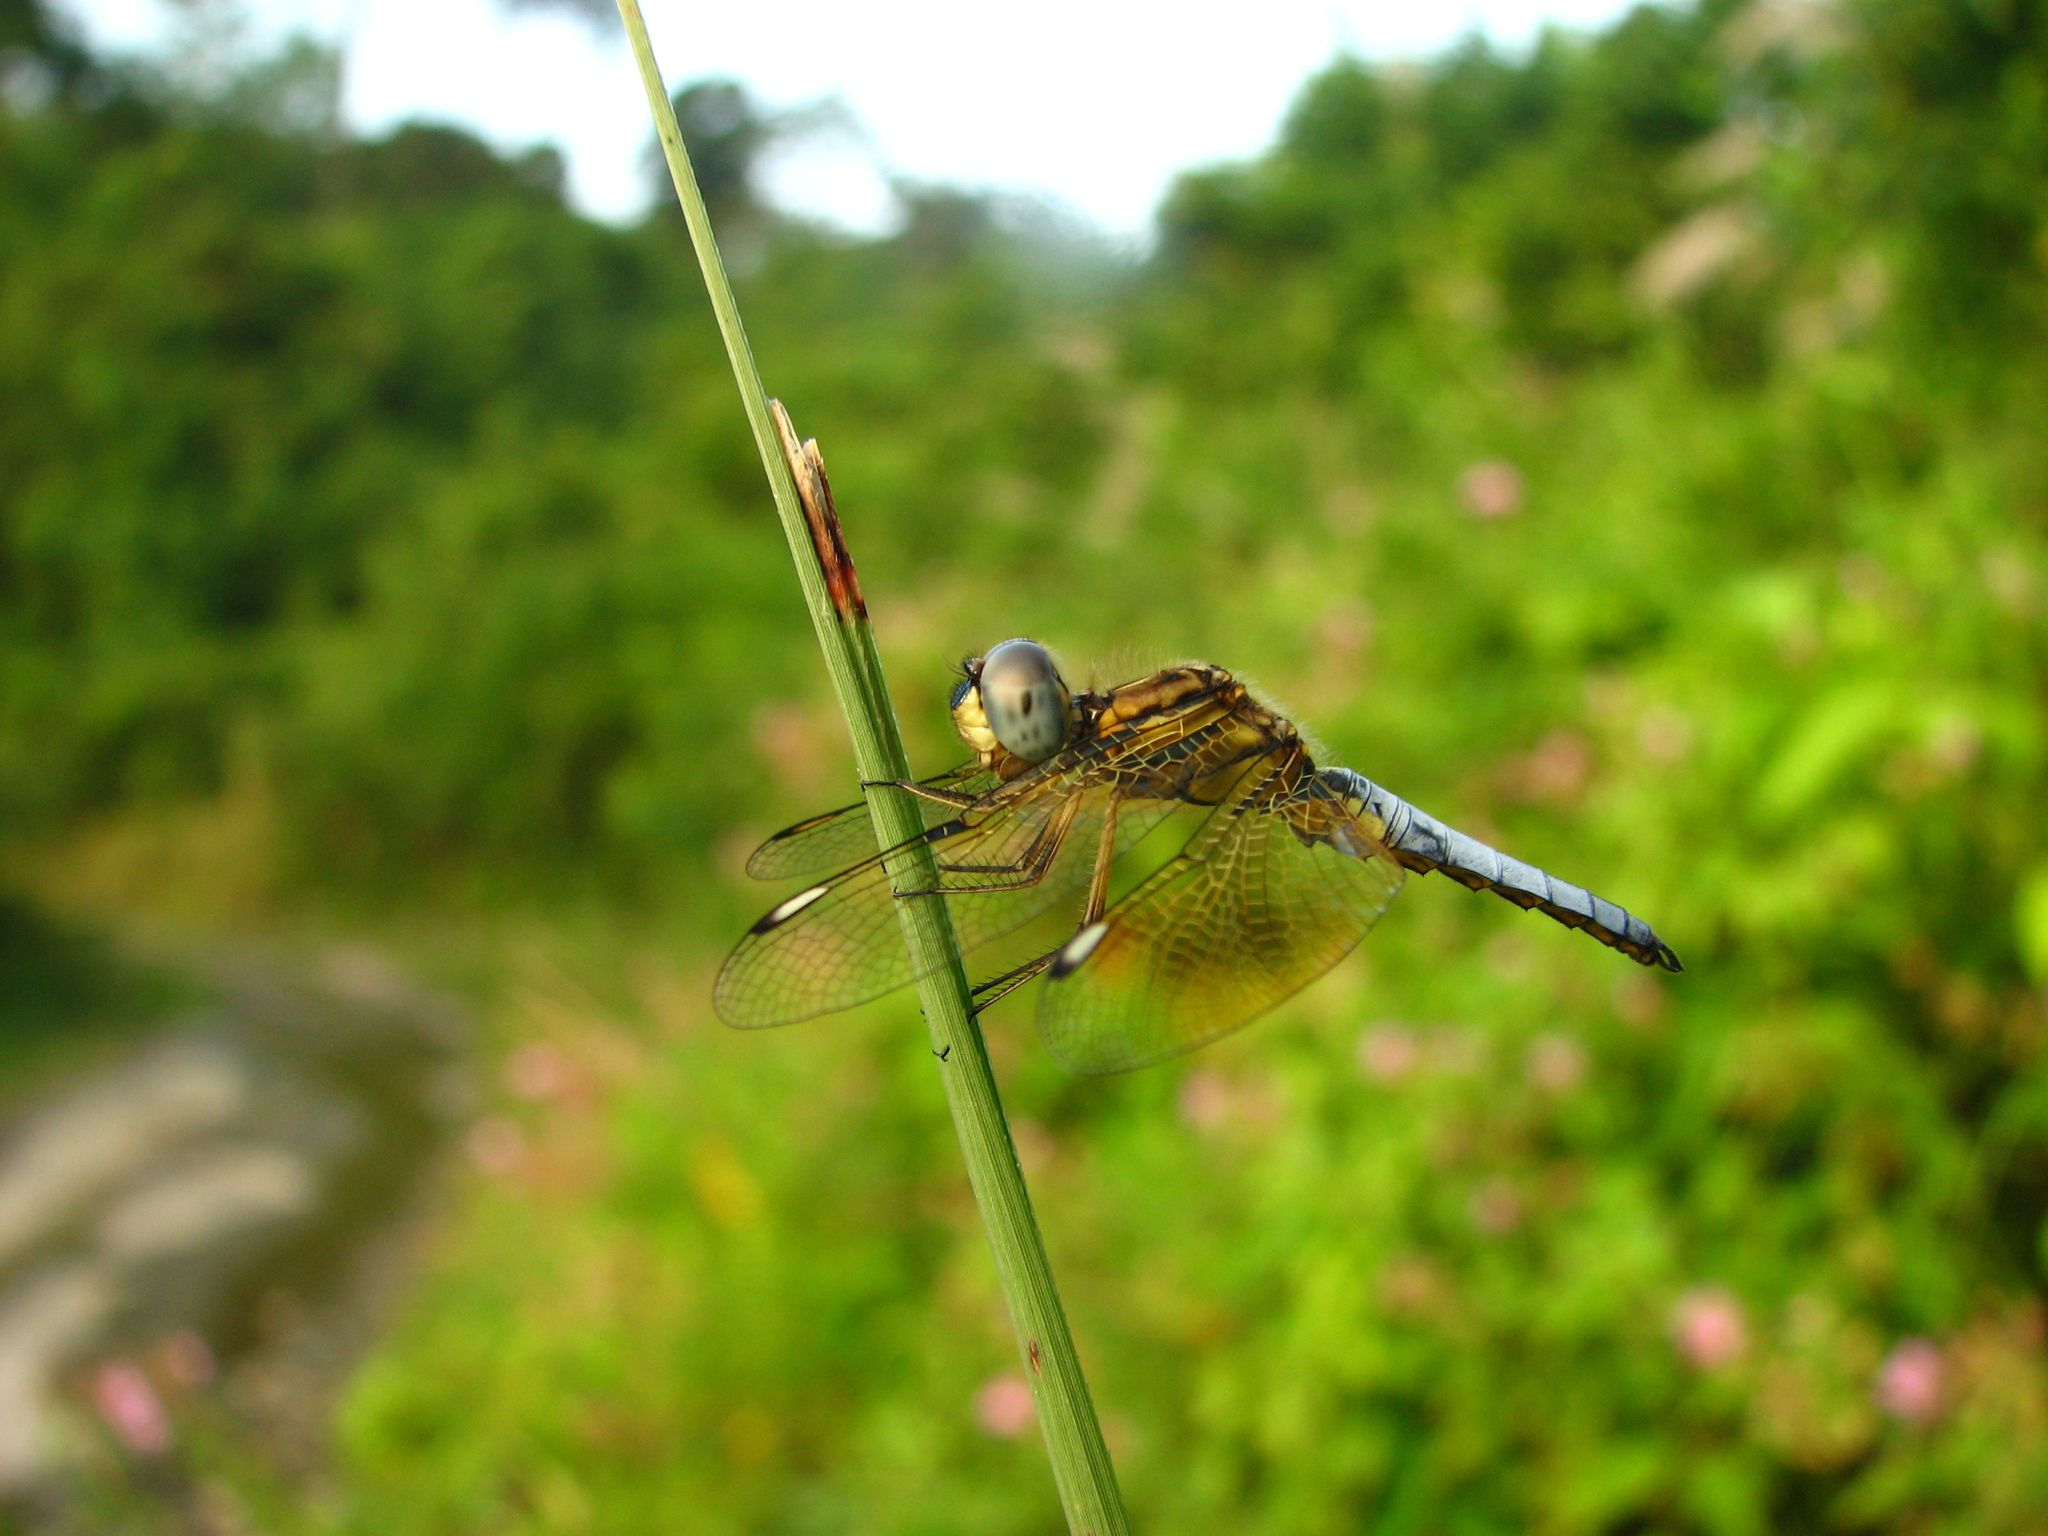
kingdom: Animalia
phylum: Arthropoda
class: Insecta
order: Odonata
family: Libellulidae
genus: Palpopleura
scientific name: Palpopleura sexmaculata
